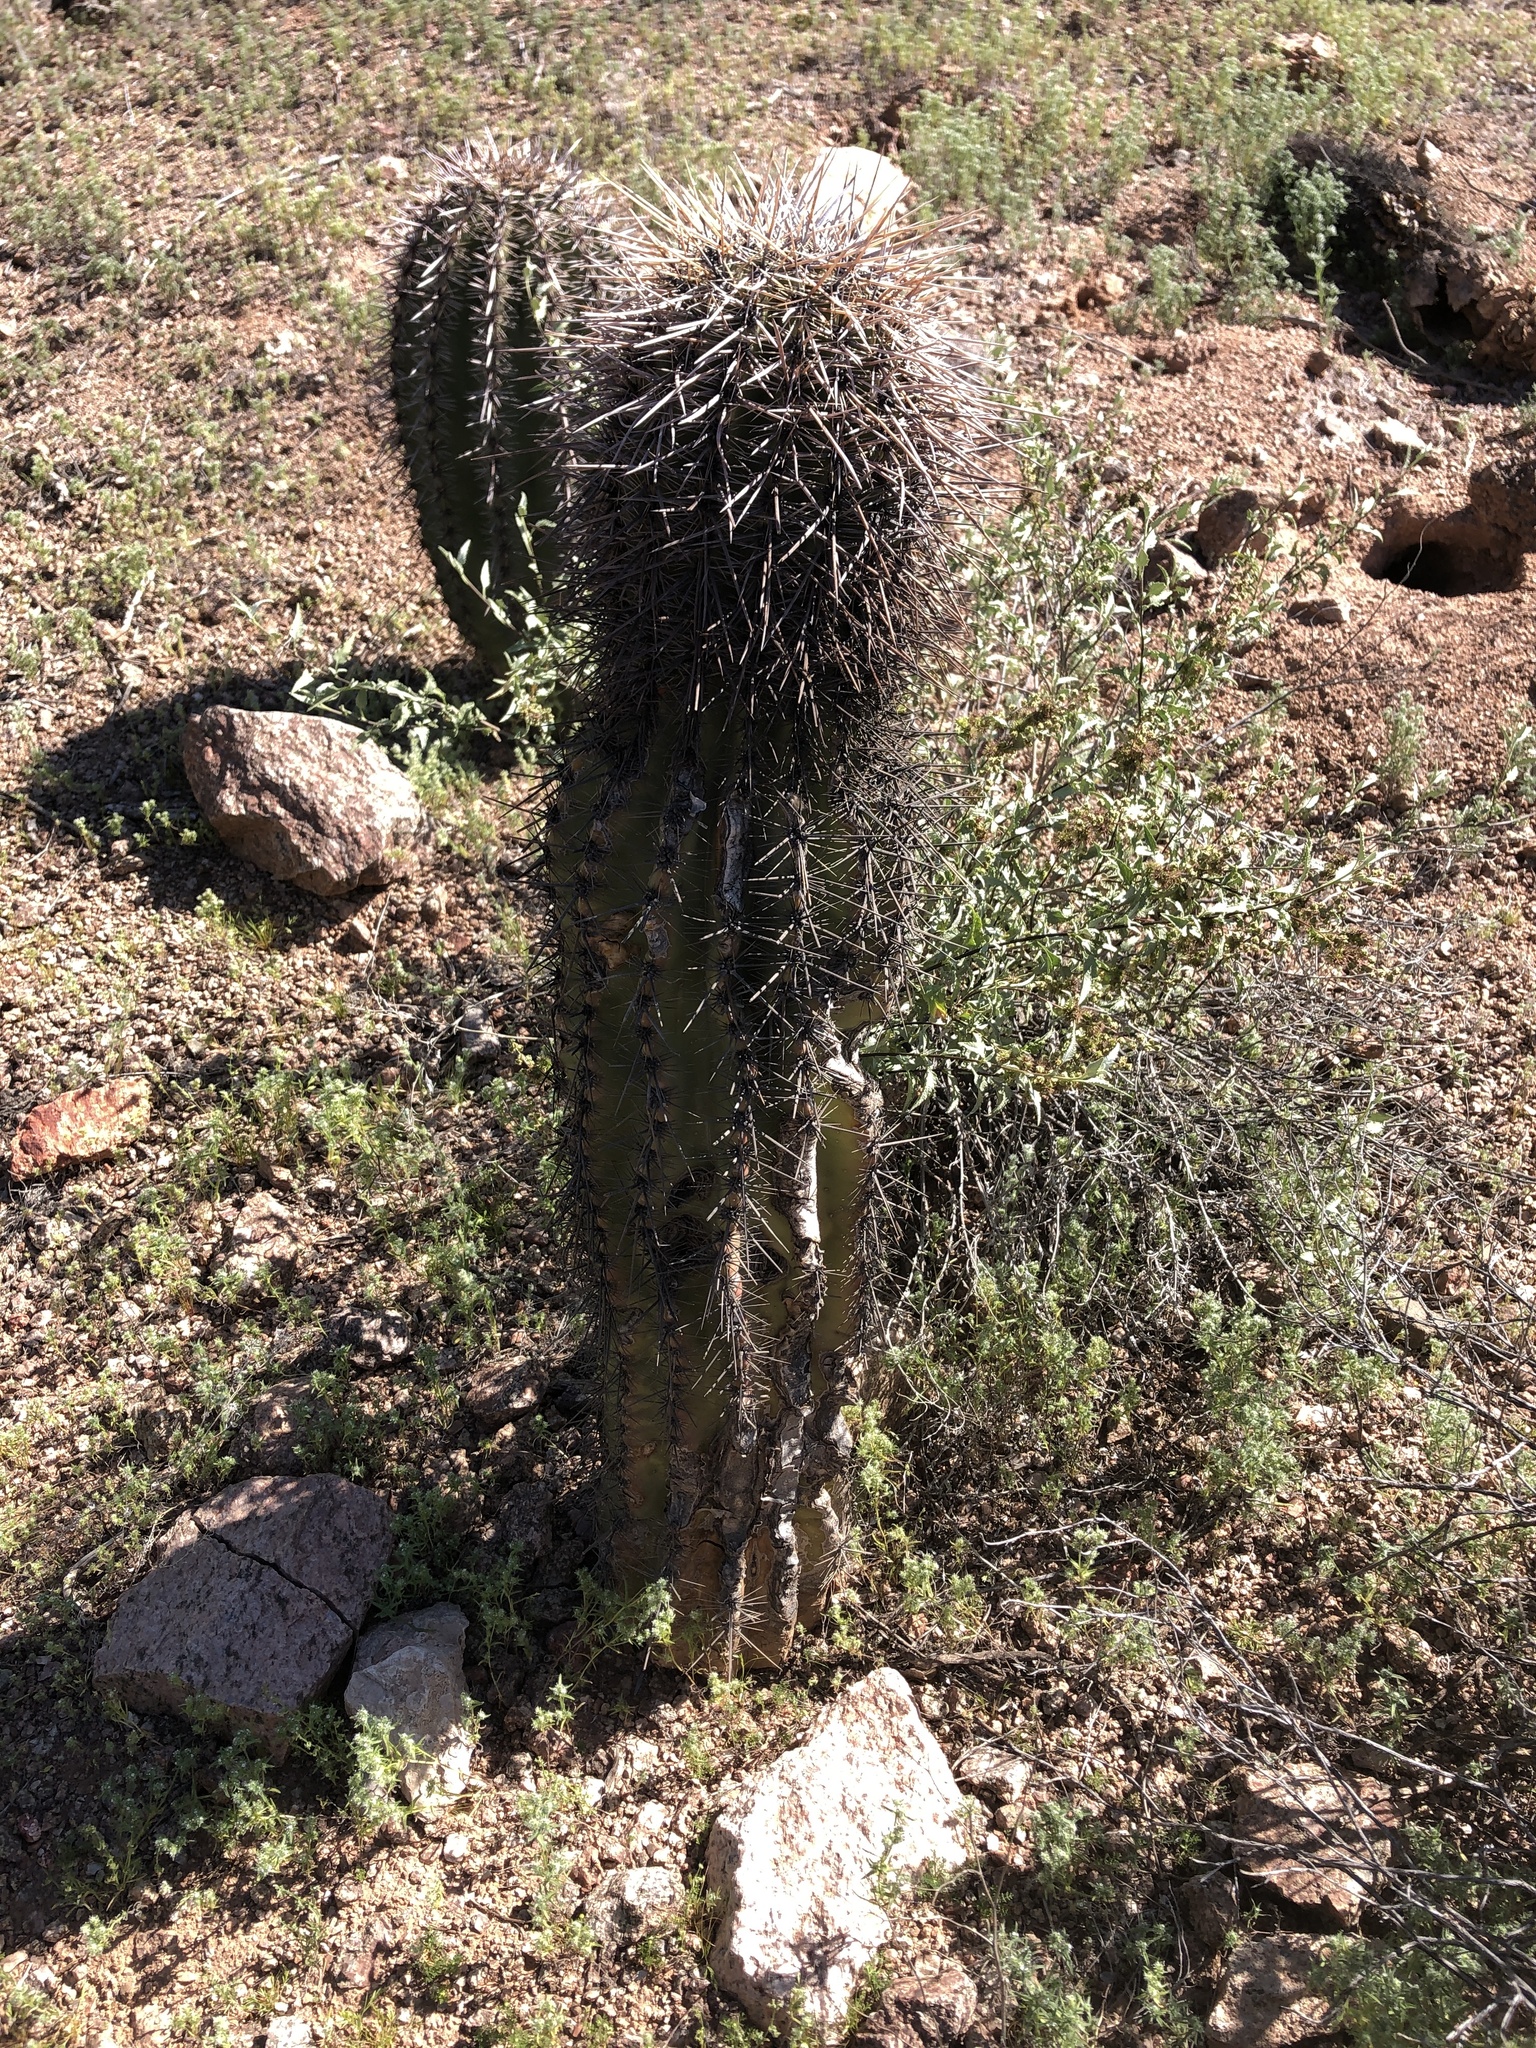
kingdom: Plantae
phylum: Tracheophyta
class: Magnoliopsida
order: Caryophyllales
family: Cactaceae
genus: Carnegiea
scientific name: Carnegiea gigantea
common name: Saguaro
